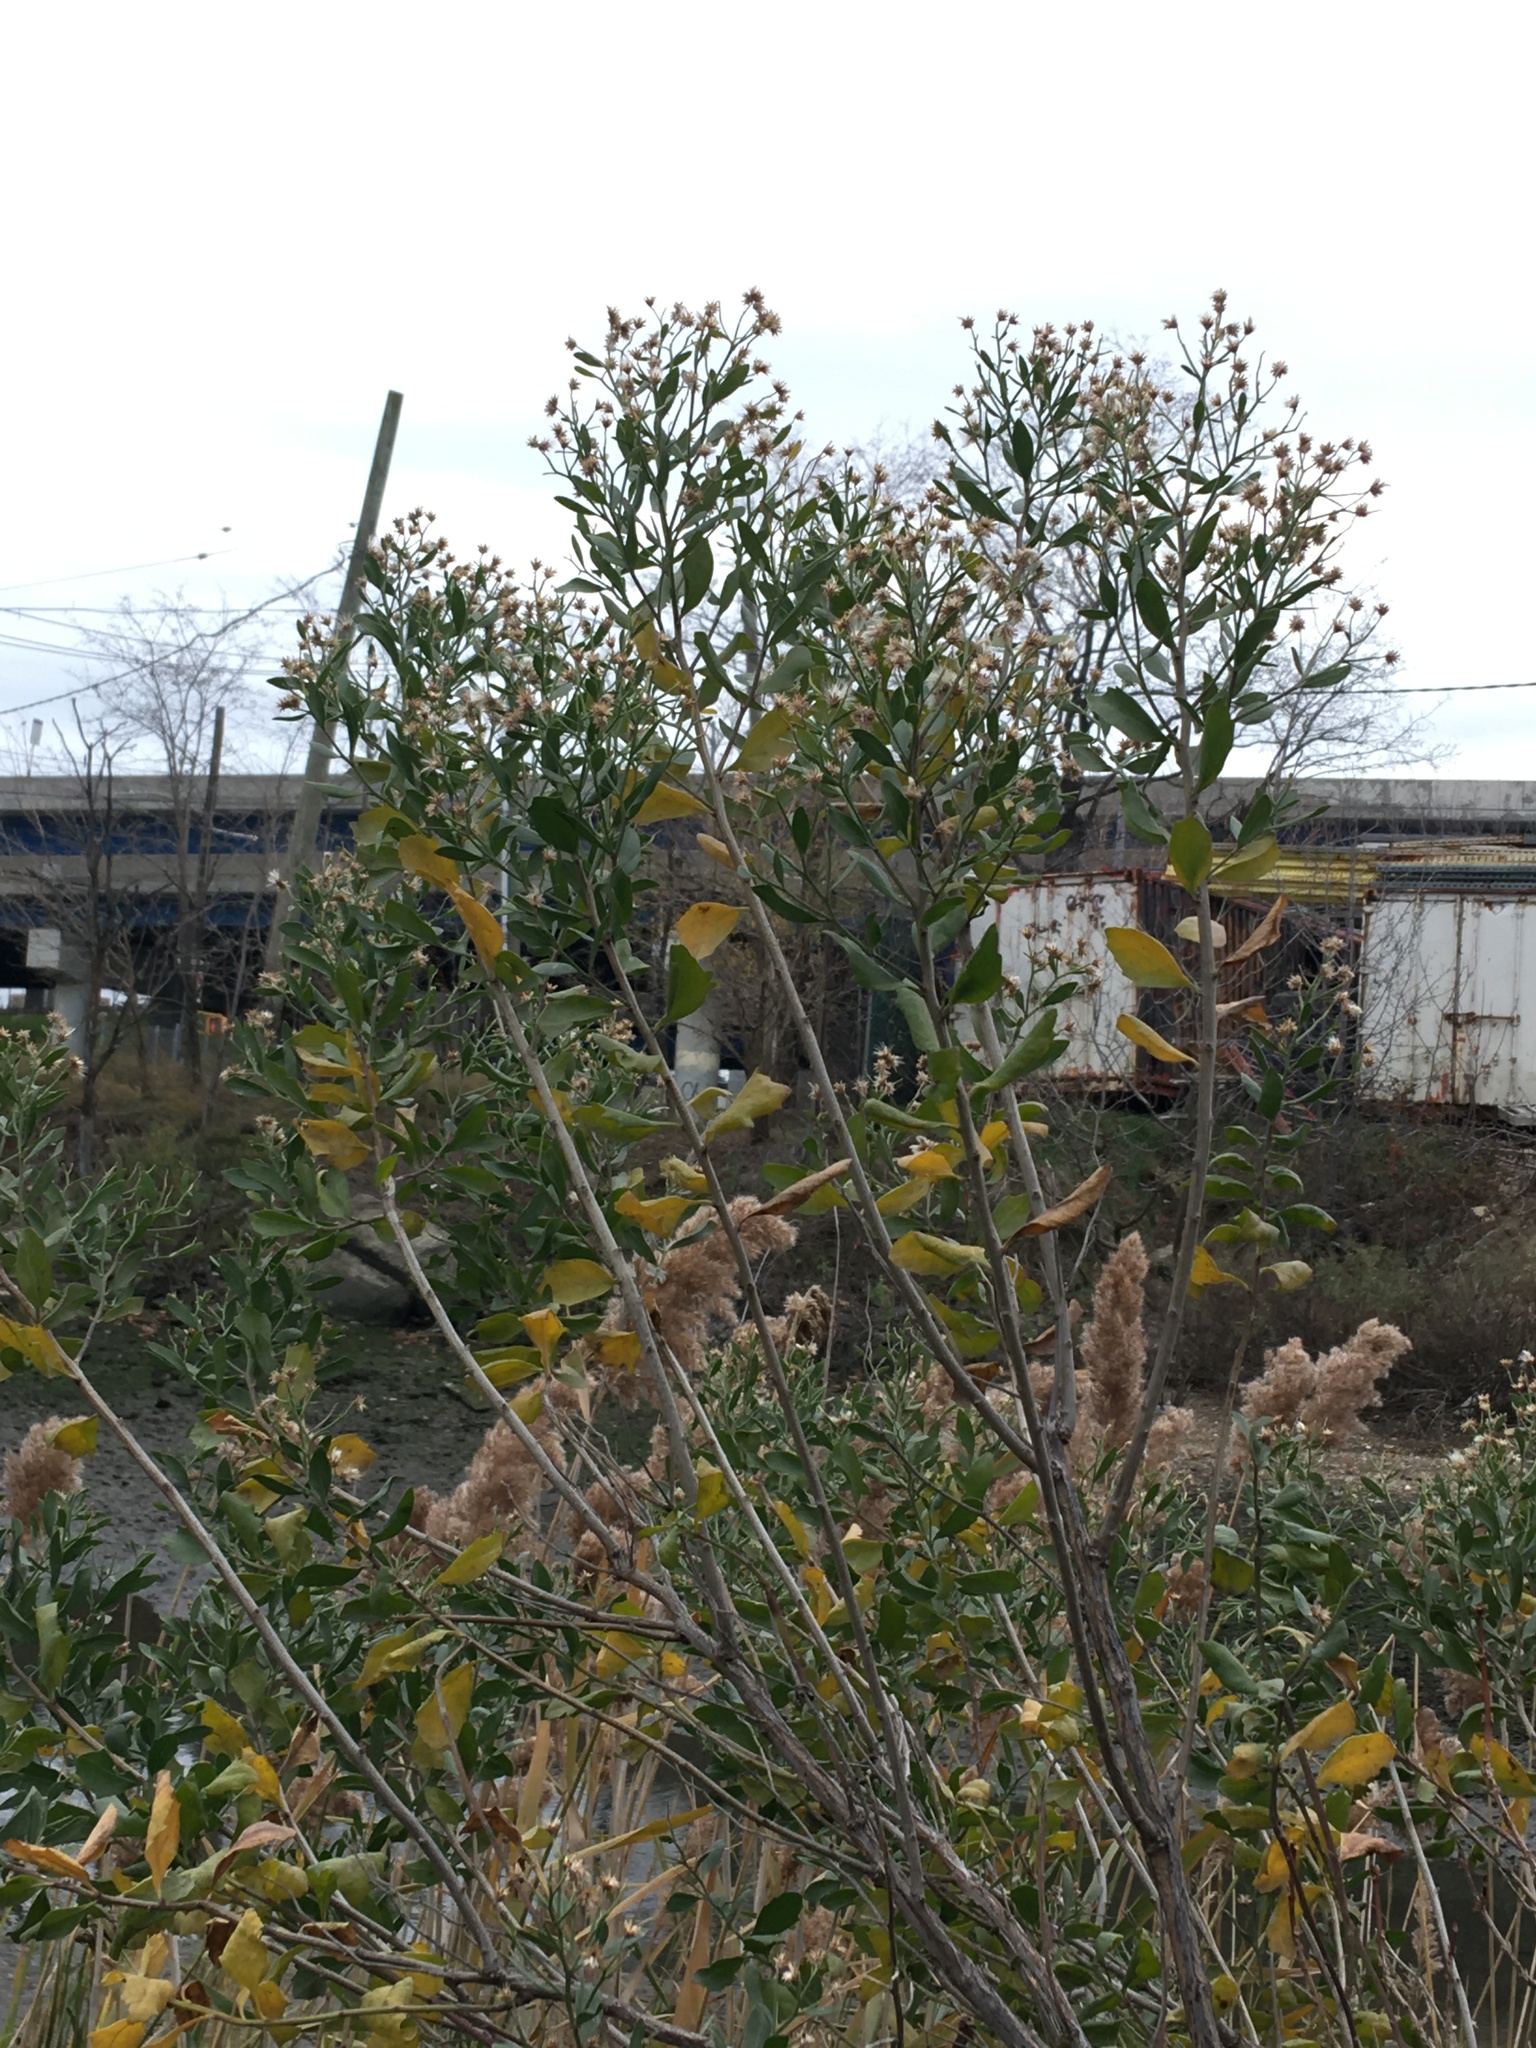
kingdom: Plantae
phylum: Tracheophyta
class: Magnoliopsida
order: Asterales
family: Asteraceae
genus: Baccharis
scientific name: Baccharis halimifolia
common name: Eastern baccharis
